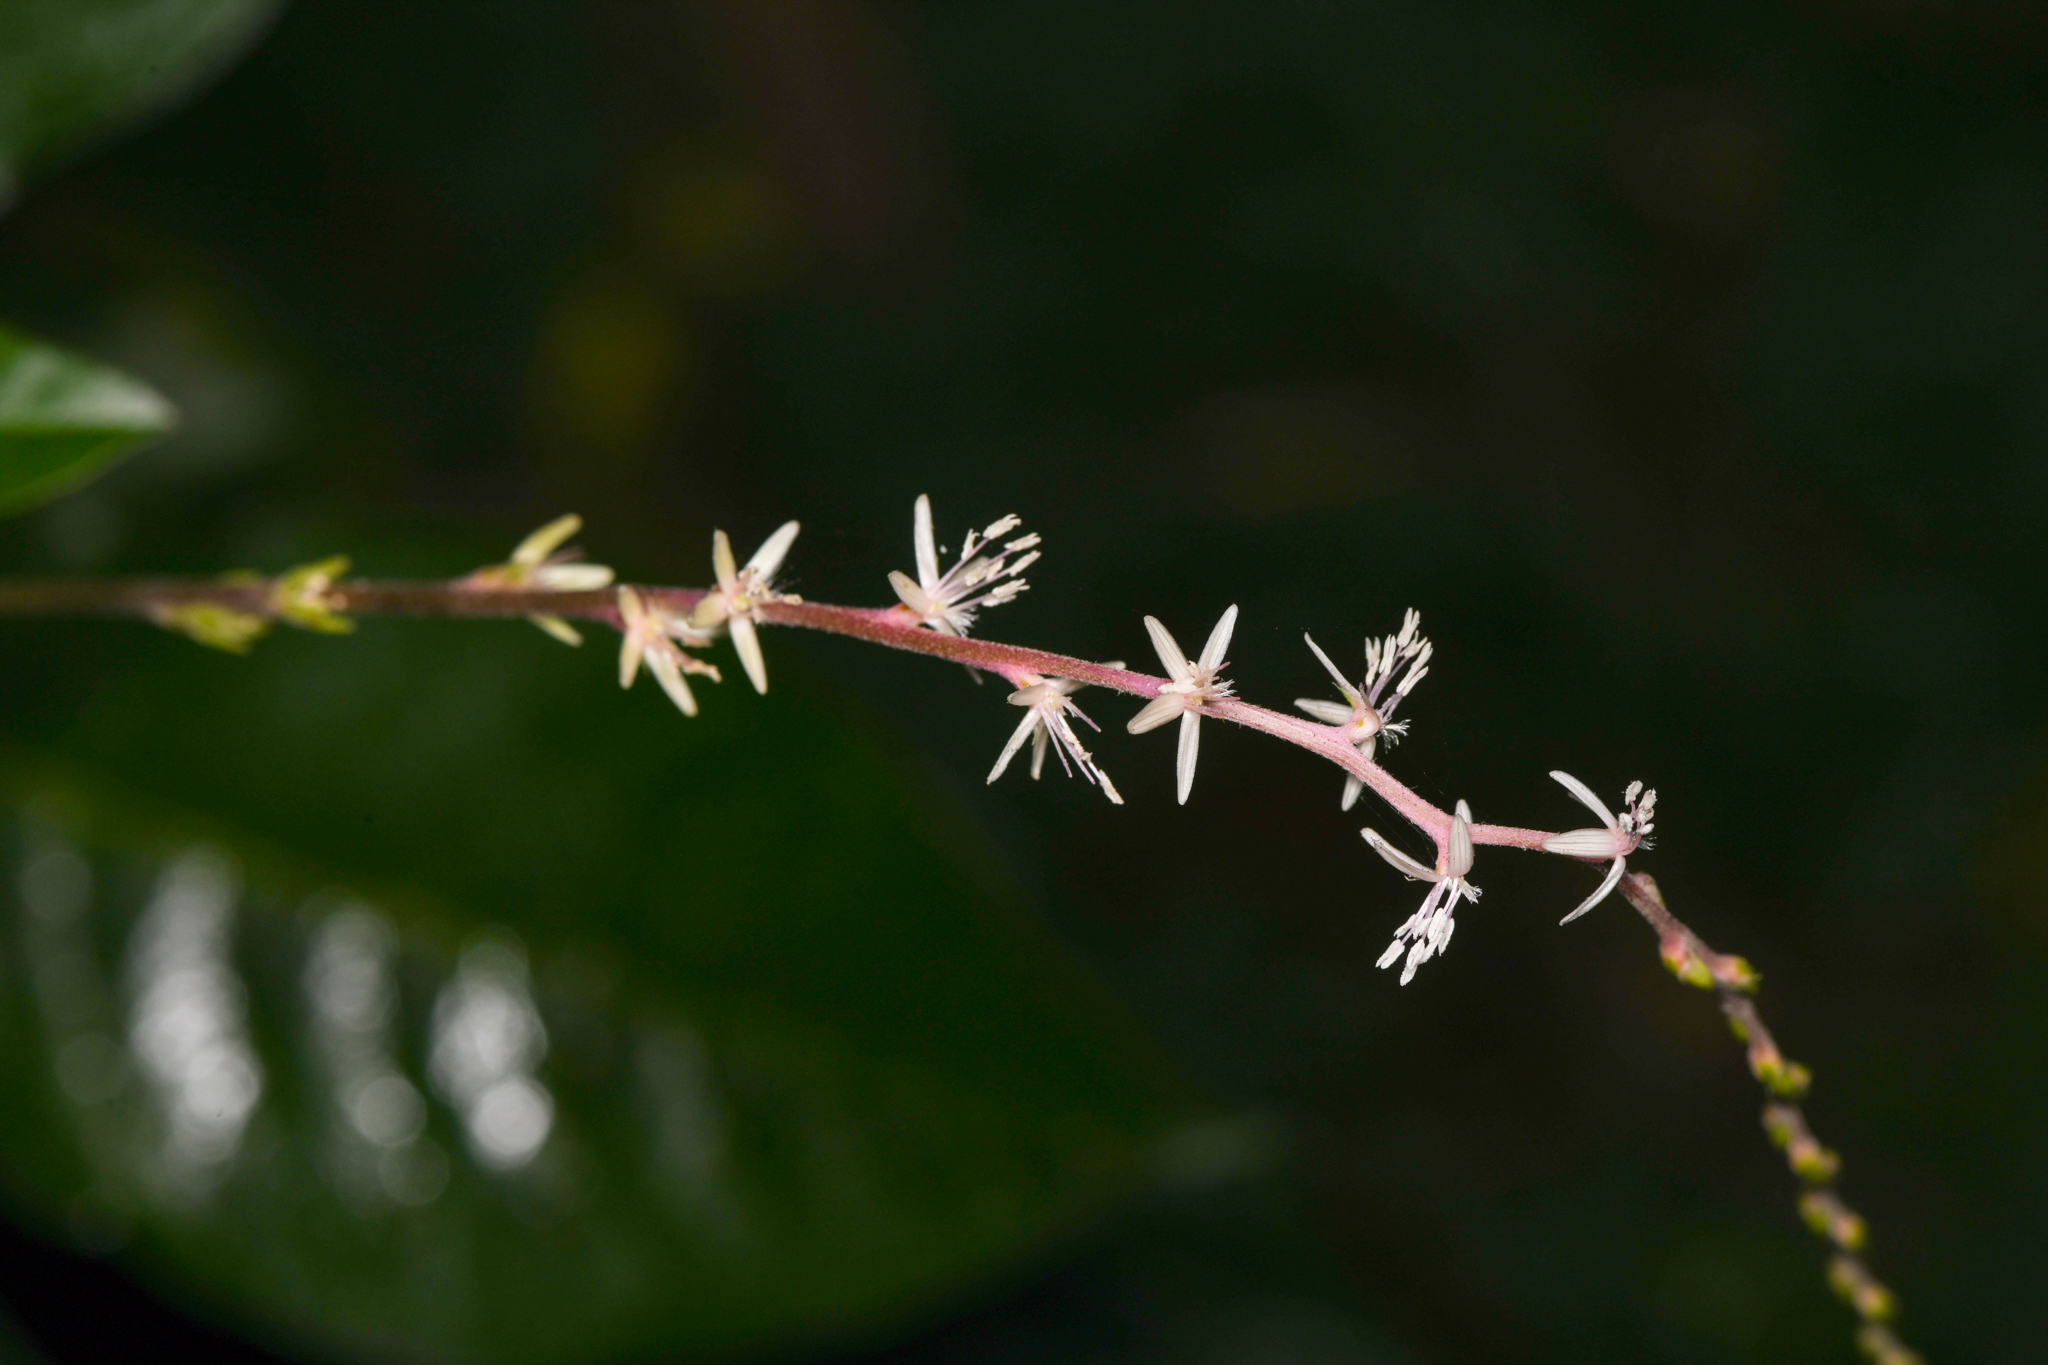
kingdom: Plantae
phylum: Tracheophyta
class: Magnoliopsida
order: Caryophyllales
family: Phytolaccaceae
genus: Petiveria
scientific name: Petiveria alliacea
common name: Garlicweed
